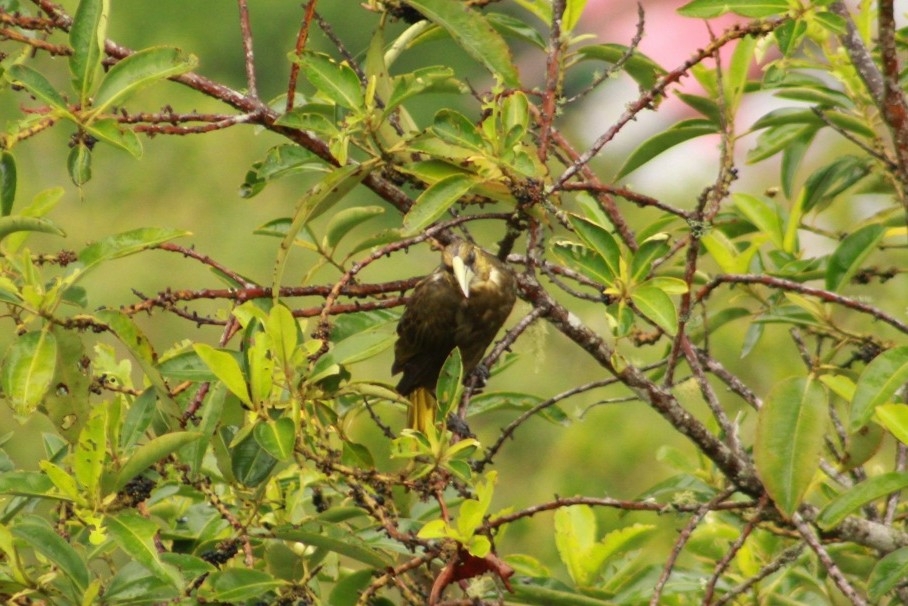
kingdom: Animalia
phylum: Chordata
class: Aves
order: Passeriformes
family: Icteridae
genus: Psarocolius
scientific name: Psarocolius atrovirens
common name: Dusky-green oropendola
